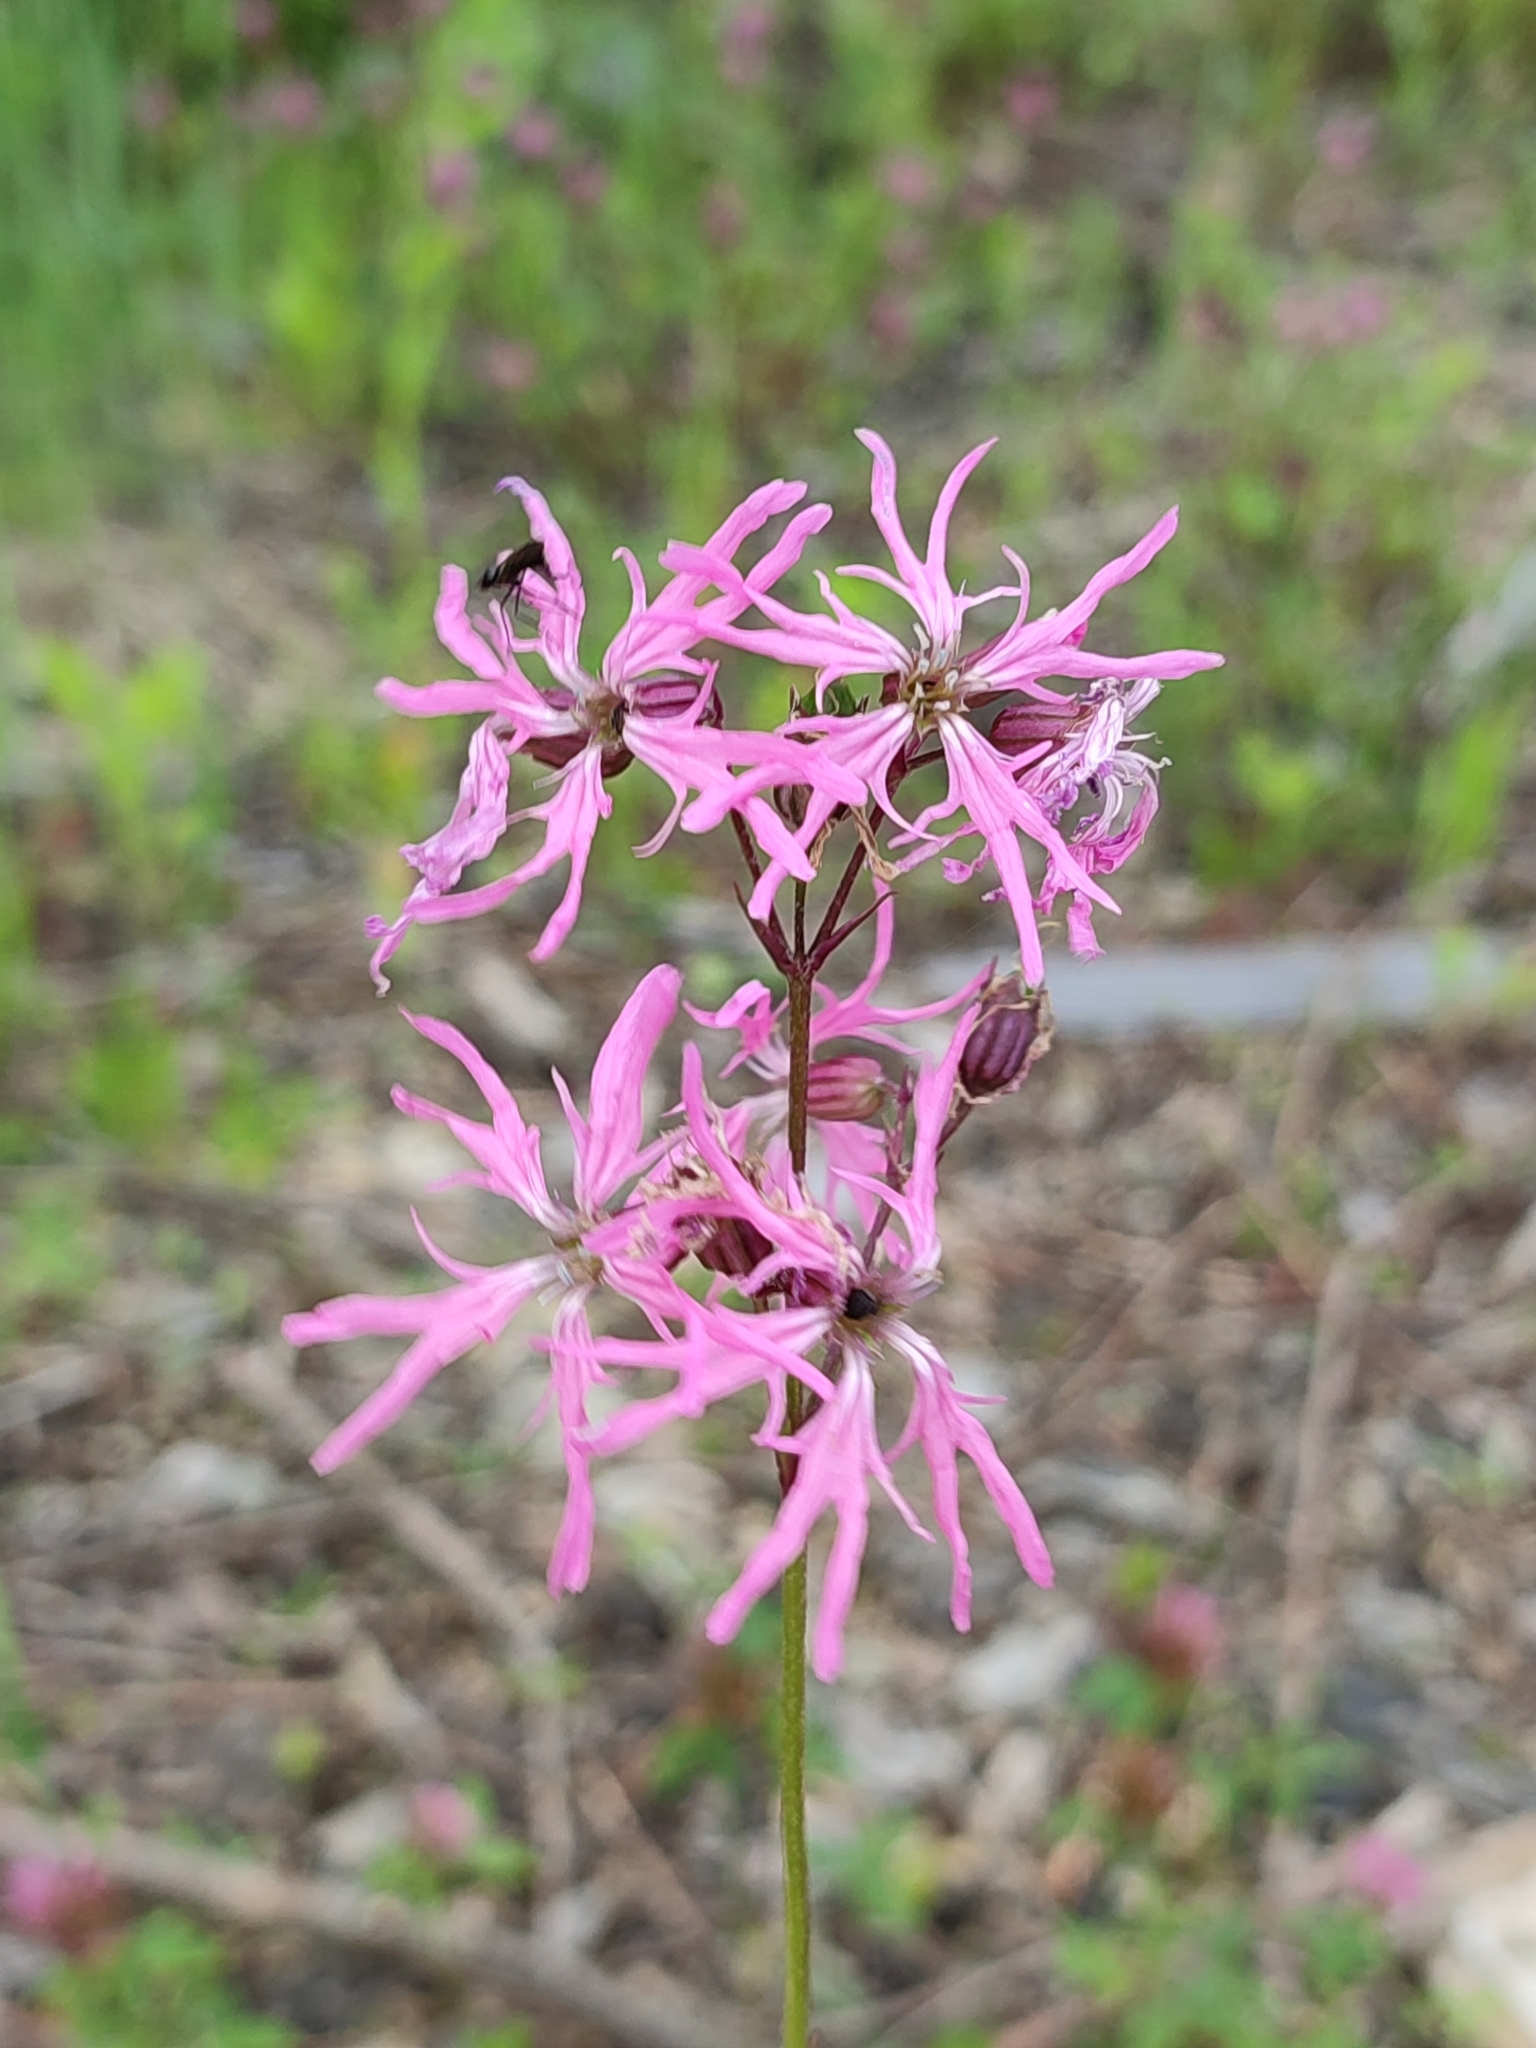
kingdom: Plantae
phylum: Tracheophyta
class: Magnoliopsida
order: Caryophyllales
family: Caryophyllaceae
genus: Silene
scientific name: Silene flos-cuculi
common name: Ragged-robin
